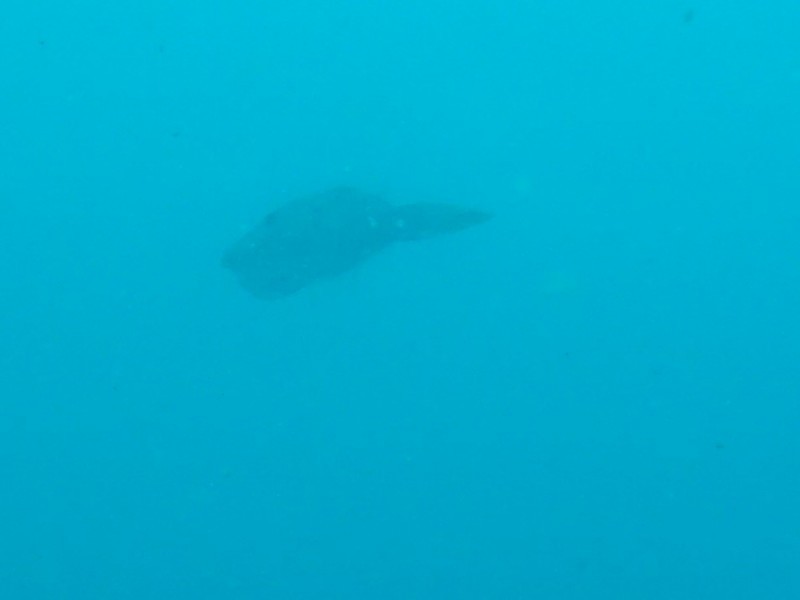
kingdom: Animalia
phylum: Chordata
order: Tetraodontiformes
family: Monacanthidae
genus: Aluterus
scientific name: Aluterus scriptus
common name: Scribbled leatherjacket filefish
